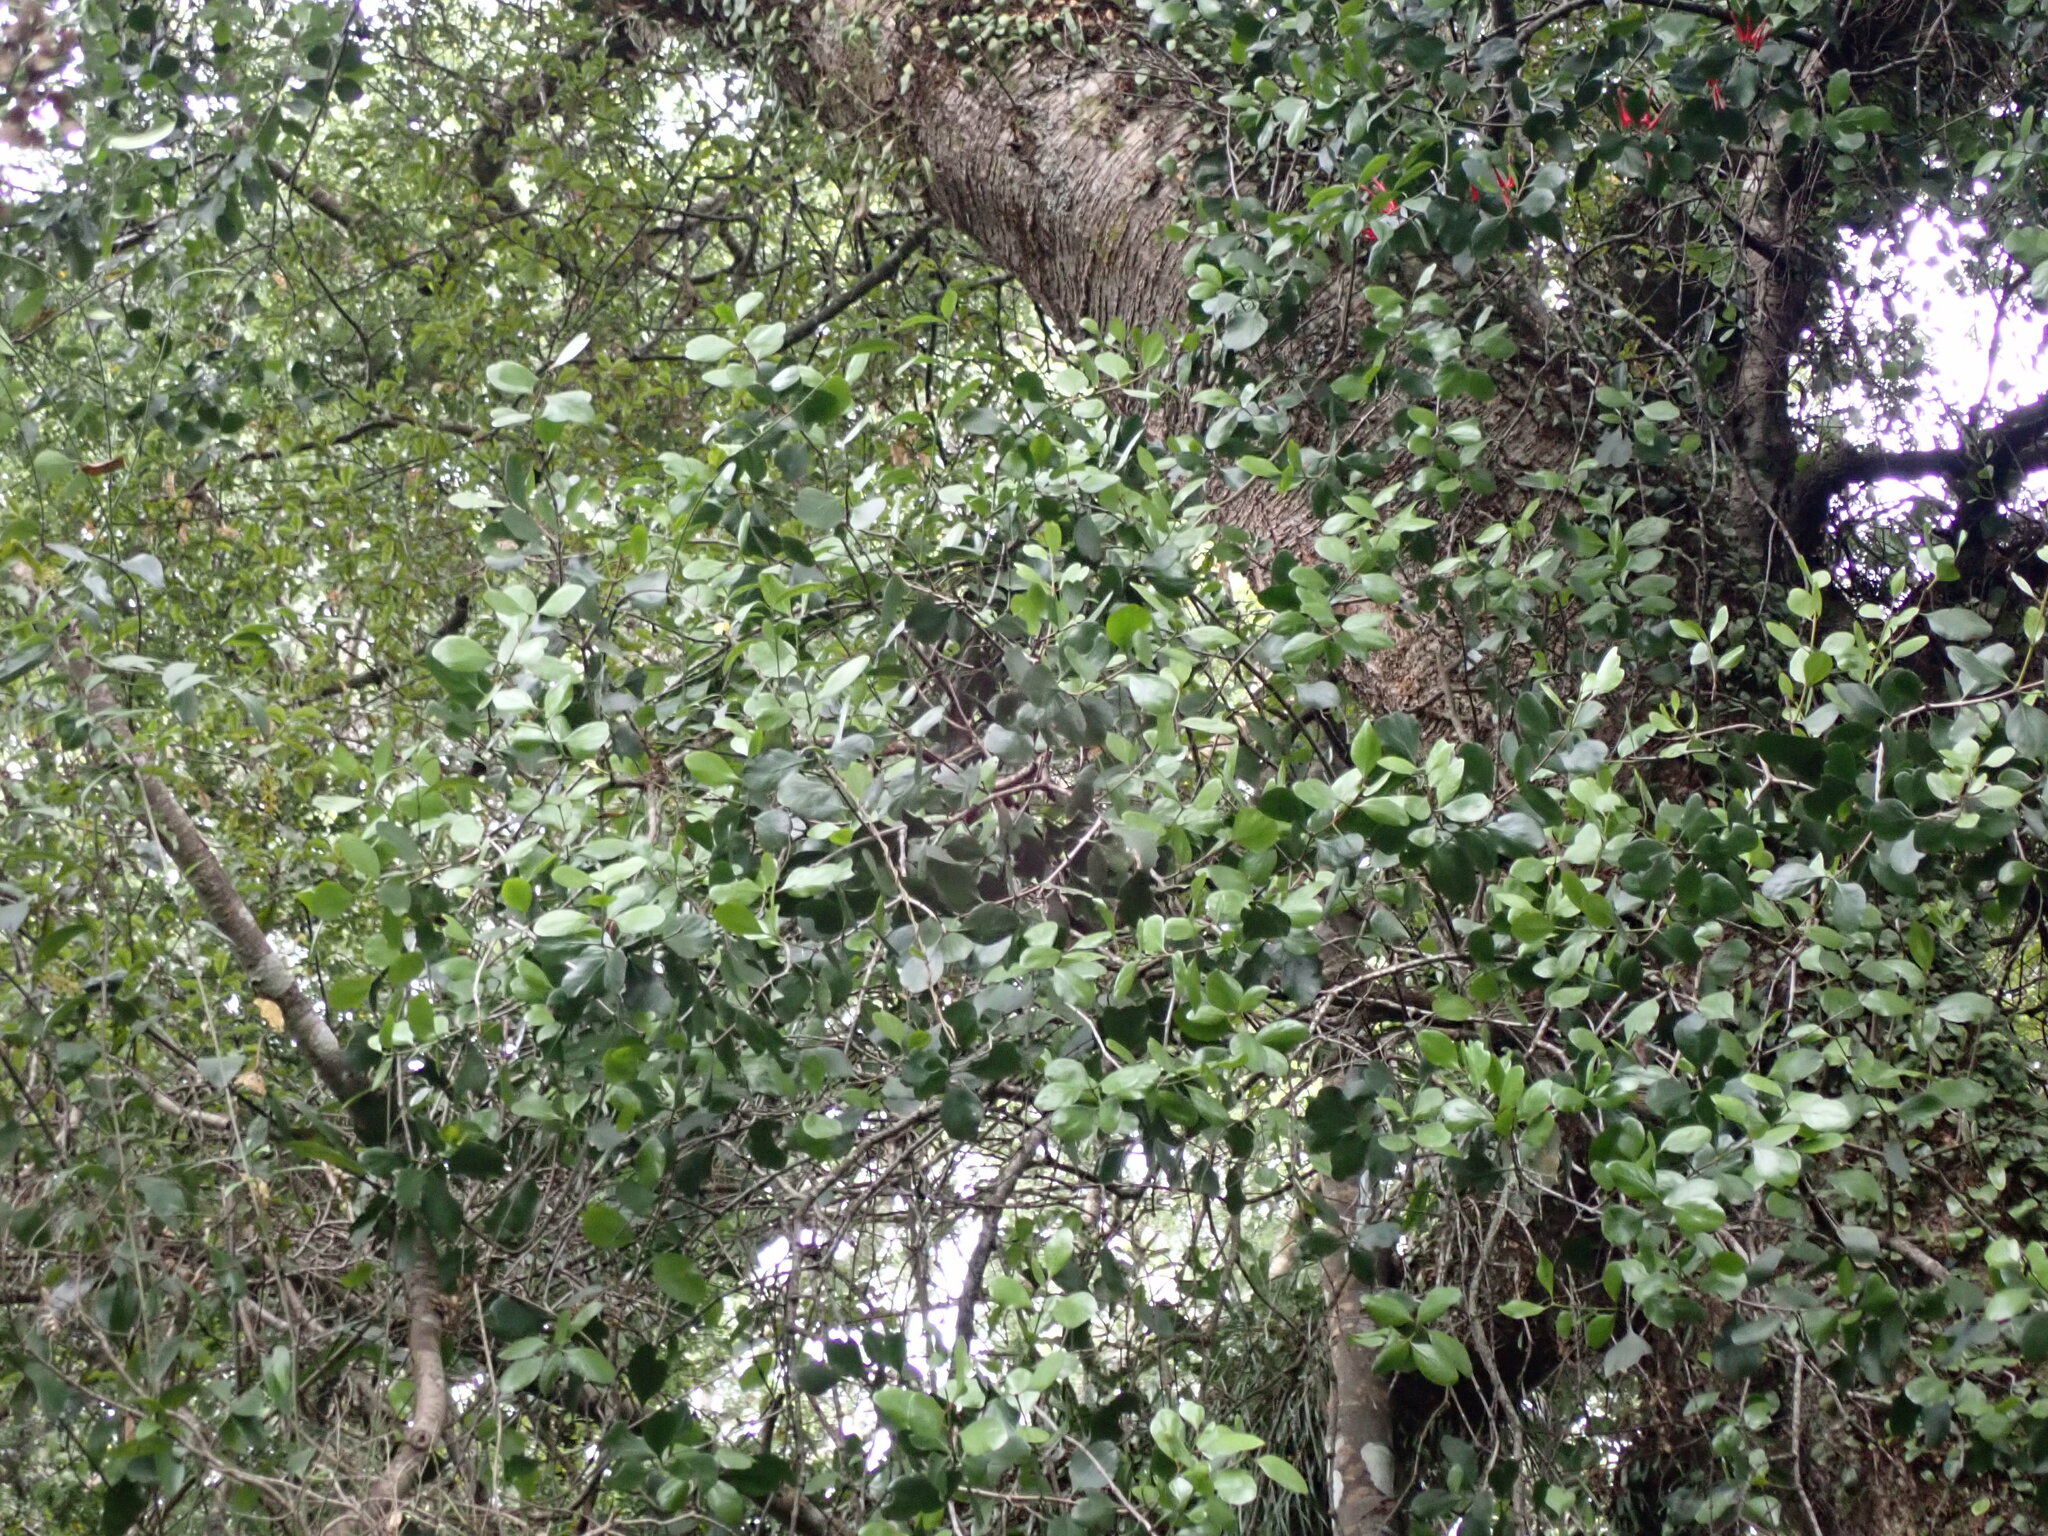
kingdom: Plantae
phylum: Tracheophyta
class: Magnoliopsida
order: Santalales
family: Loranthaceae
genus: Peraxilla
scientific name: Peraxilla colensoi
